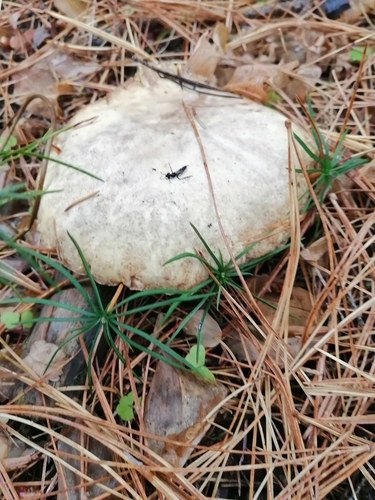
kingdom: Fungi
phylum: Basidiomycota
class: Agaricomycetes
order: Boletales
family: Suillaceae
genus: Suillus
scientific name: Suillus placidus
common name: Slippery white bolete
